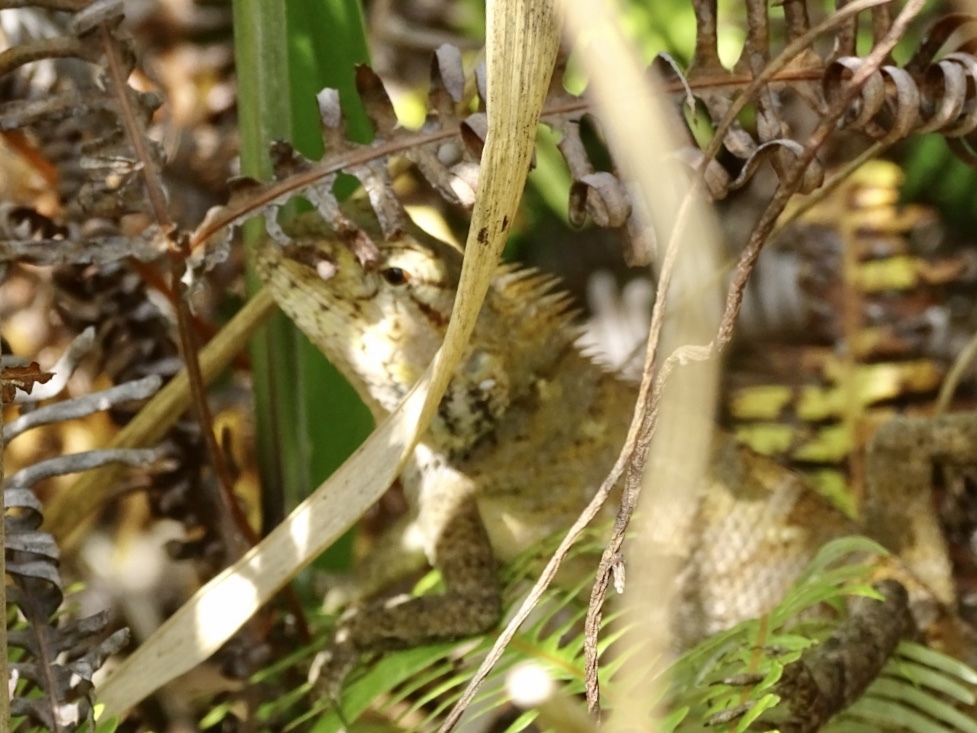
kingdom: Animalia
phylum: Chordata
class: Squamata
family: Agamidae
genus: Calotes
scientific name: Calotes versicolor
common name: Oriental garden lizard
